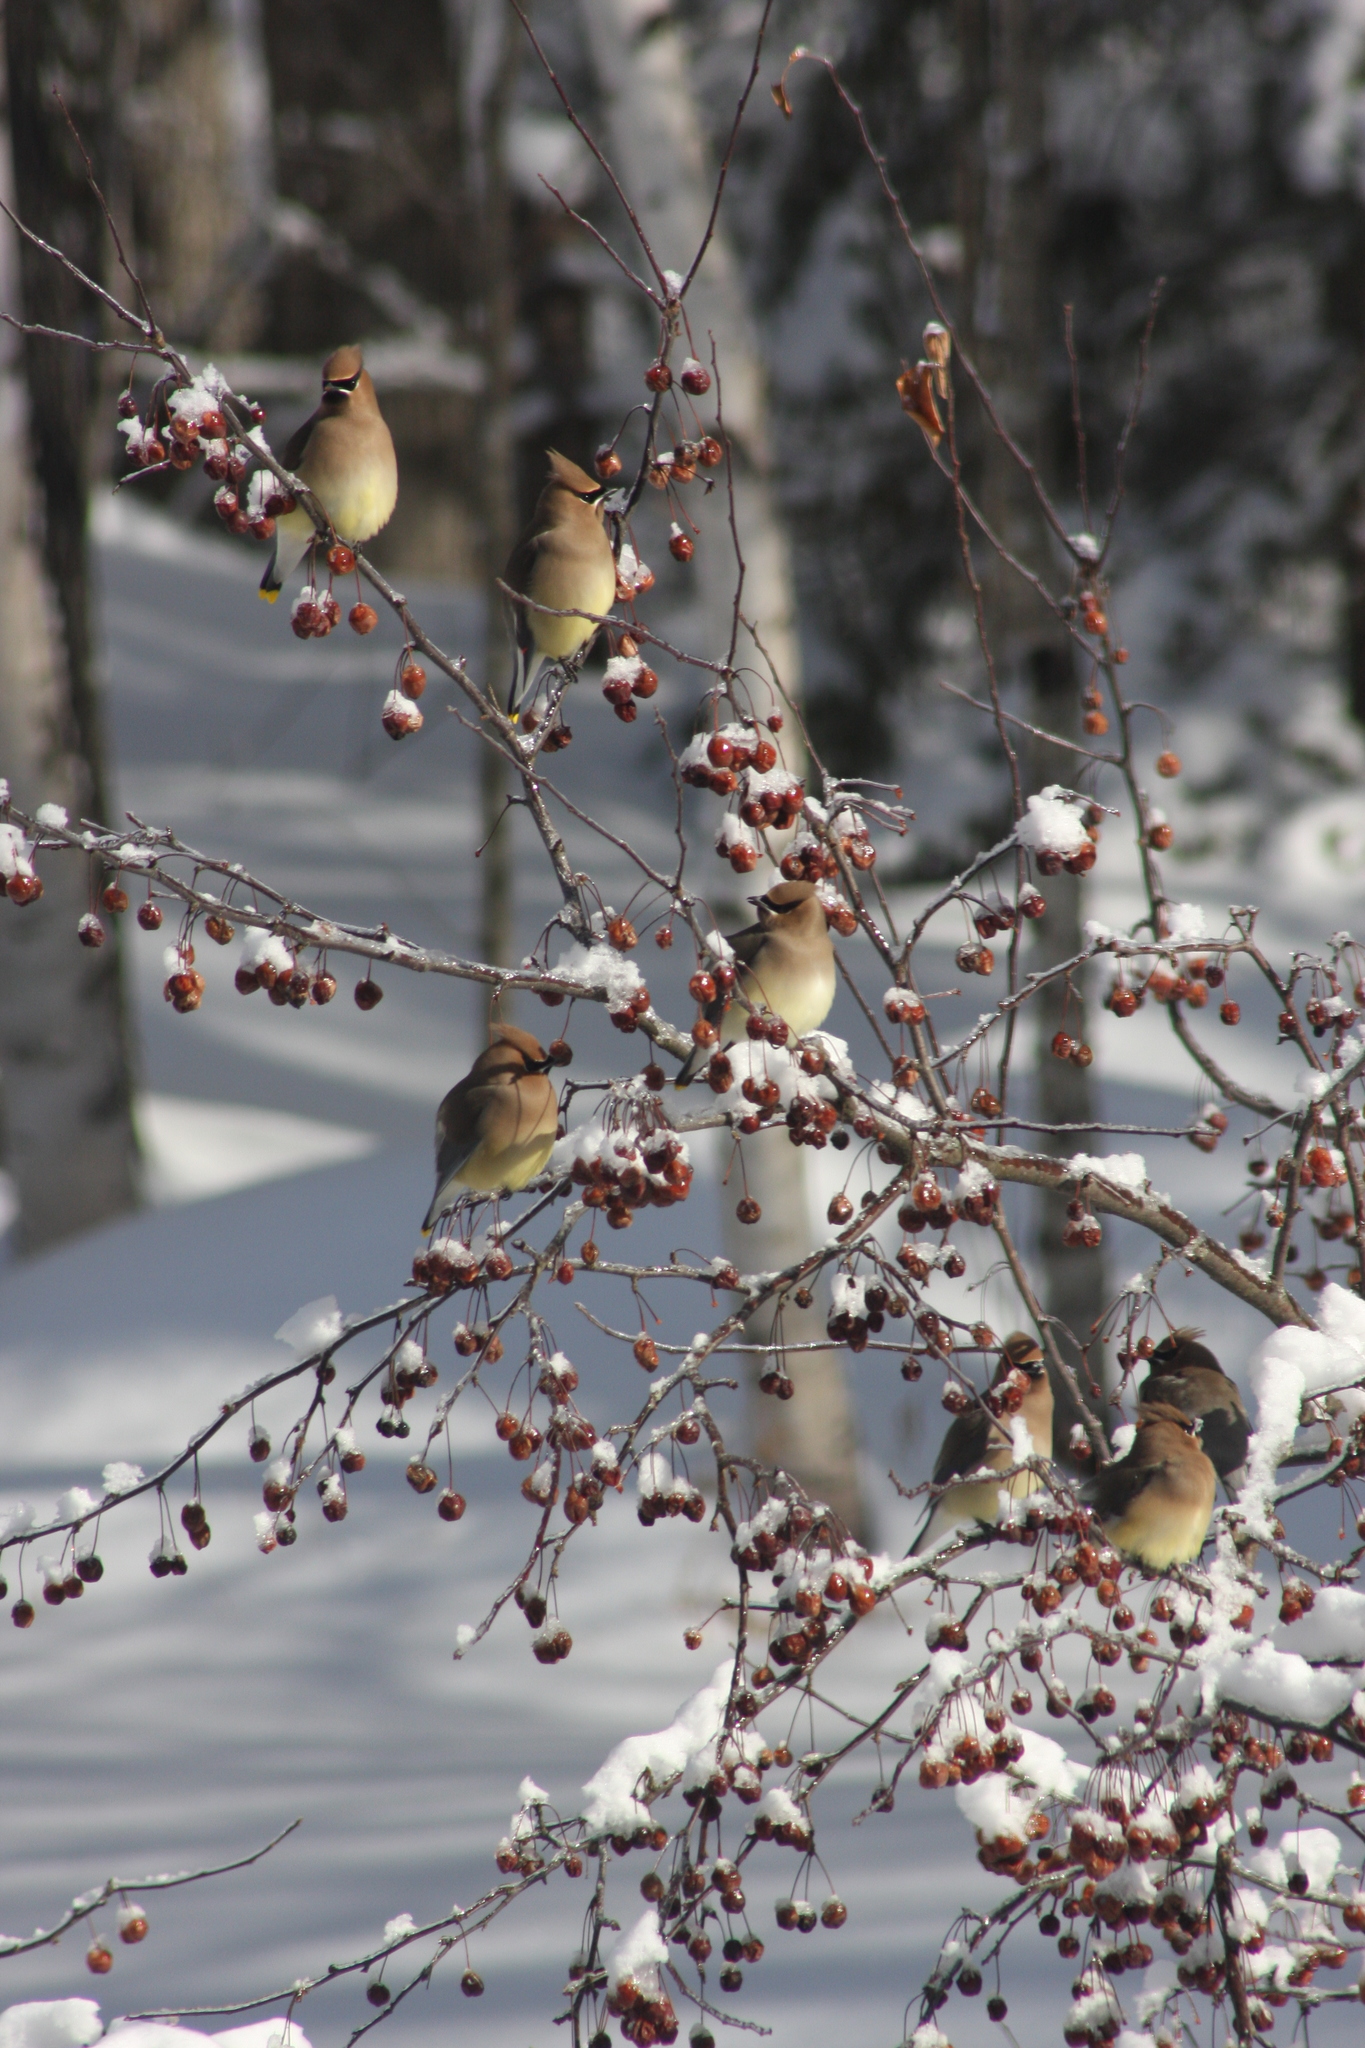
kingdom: Animalia
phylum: Chordata
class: Aves
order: Passeriformes
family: Bombycillidae
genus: Bombycilla
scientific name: Bombycilla cedrorum
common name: Cedar waxwing
